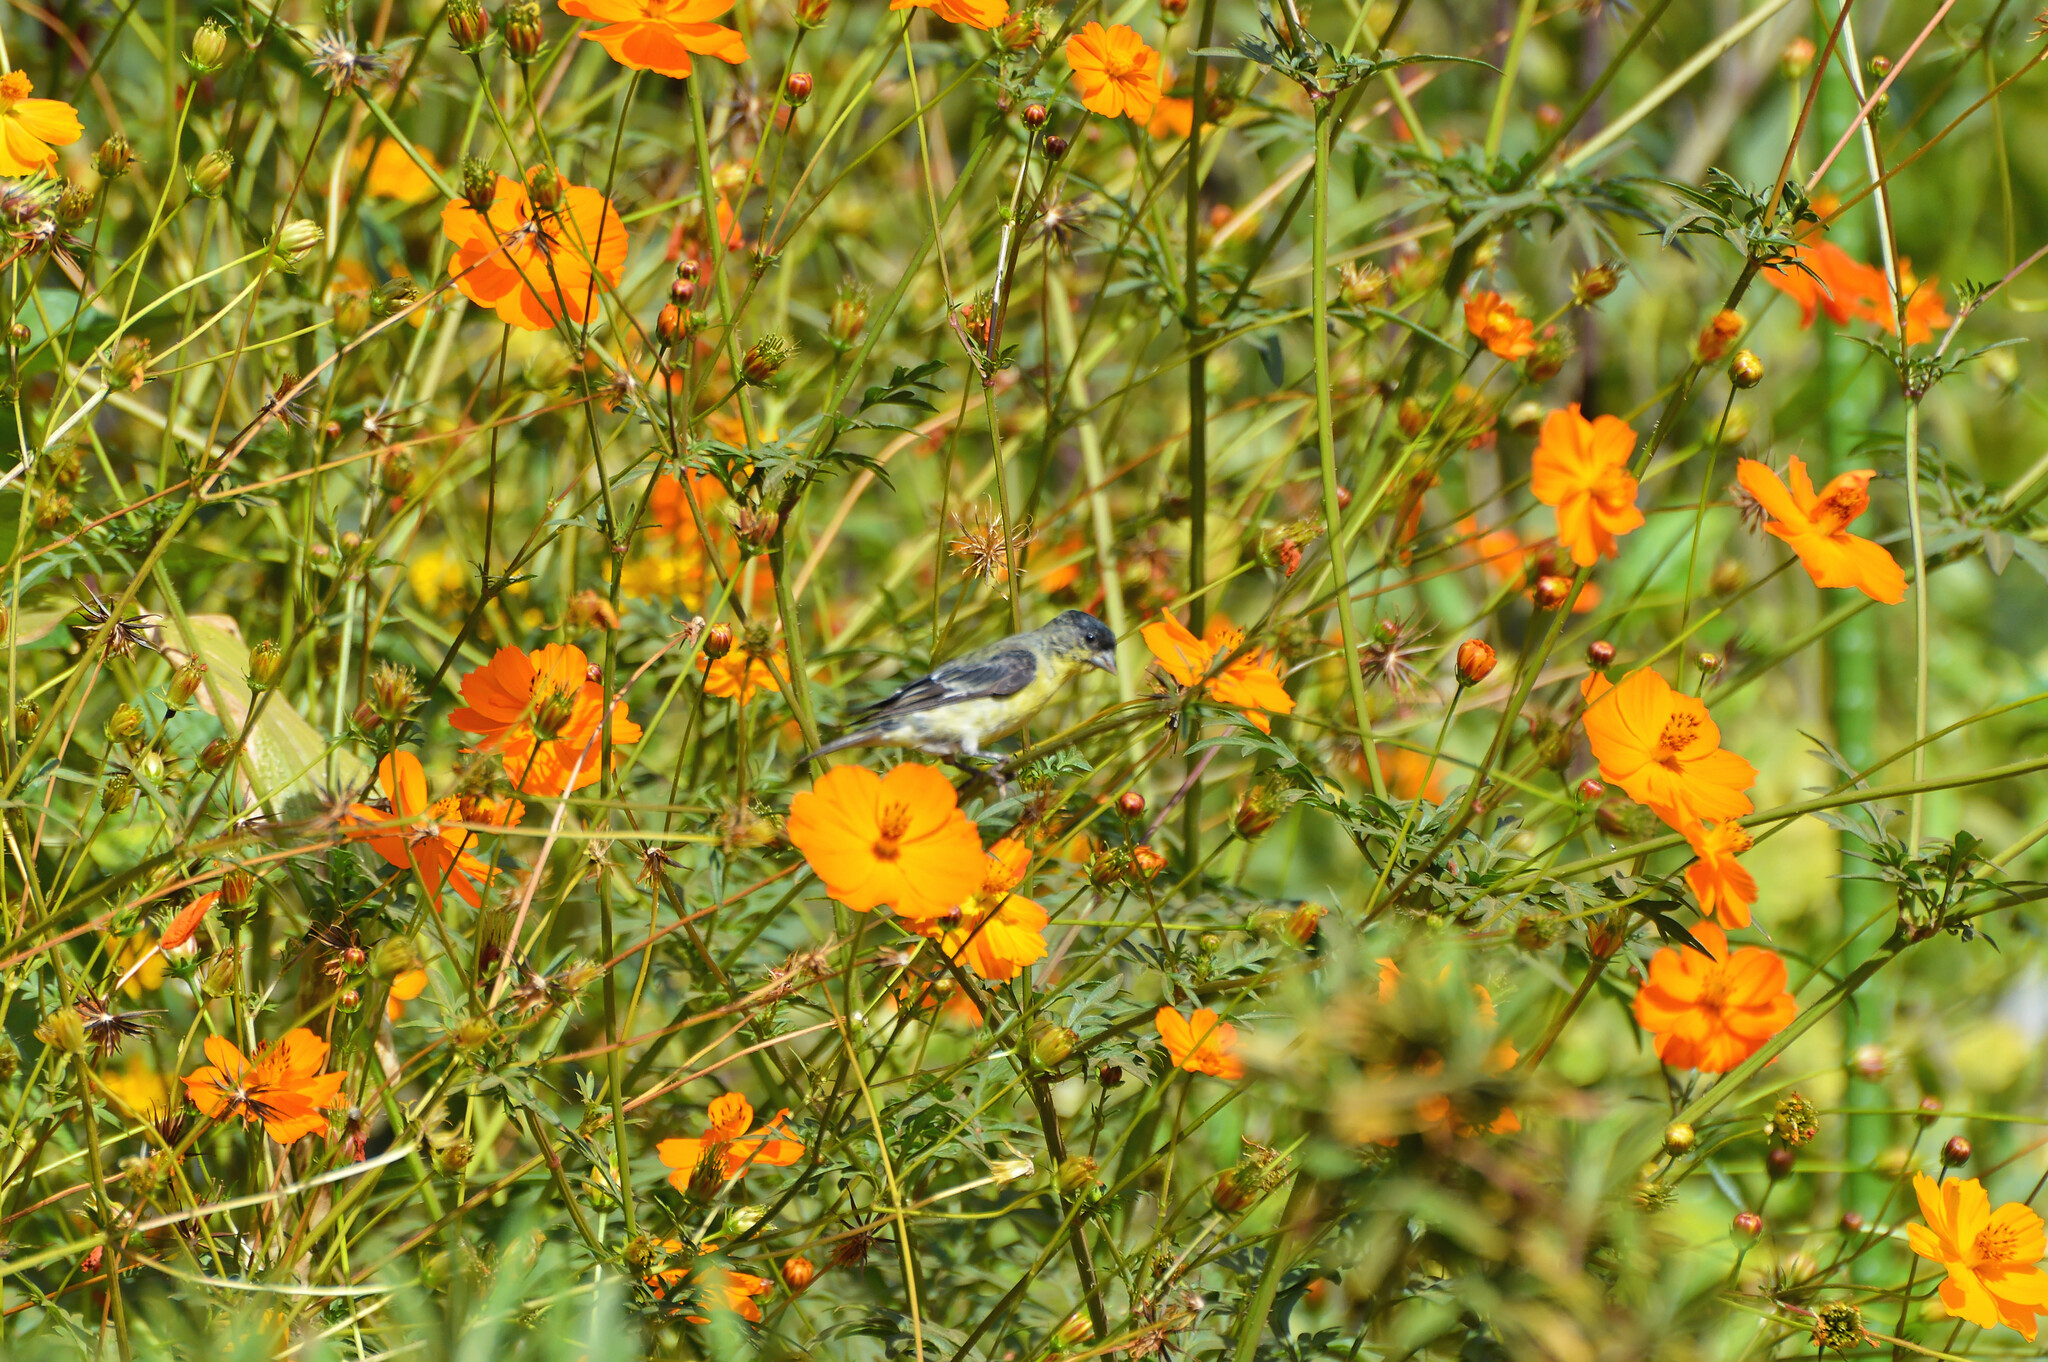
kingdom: Animalia
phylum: Chordata
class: Aves
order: Passeriformes
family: Fringillidae
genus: Spinus
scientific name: Spinus psaltria
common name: Lesser goldfinch
